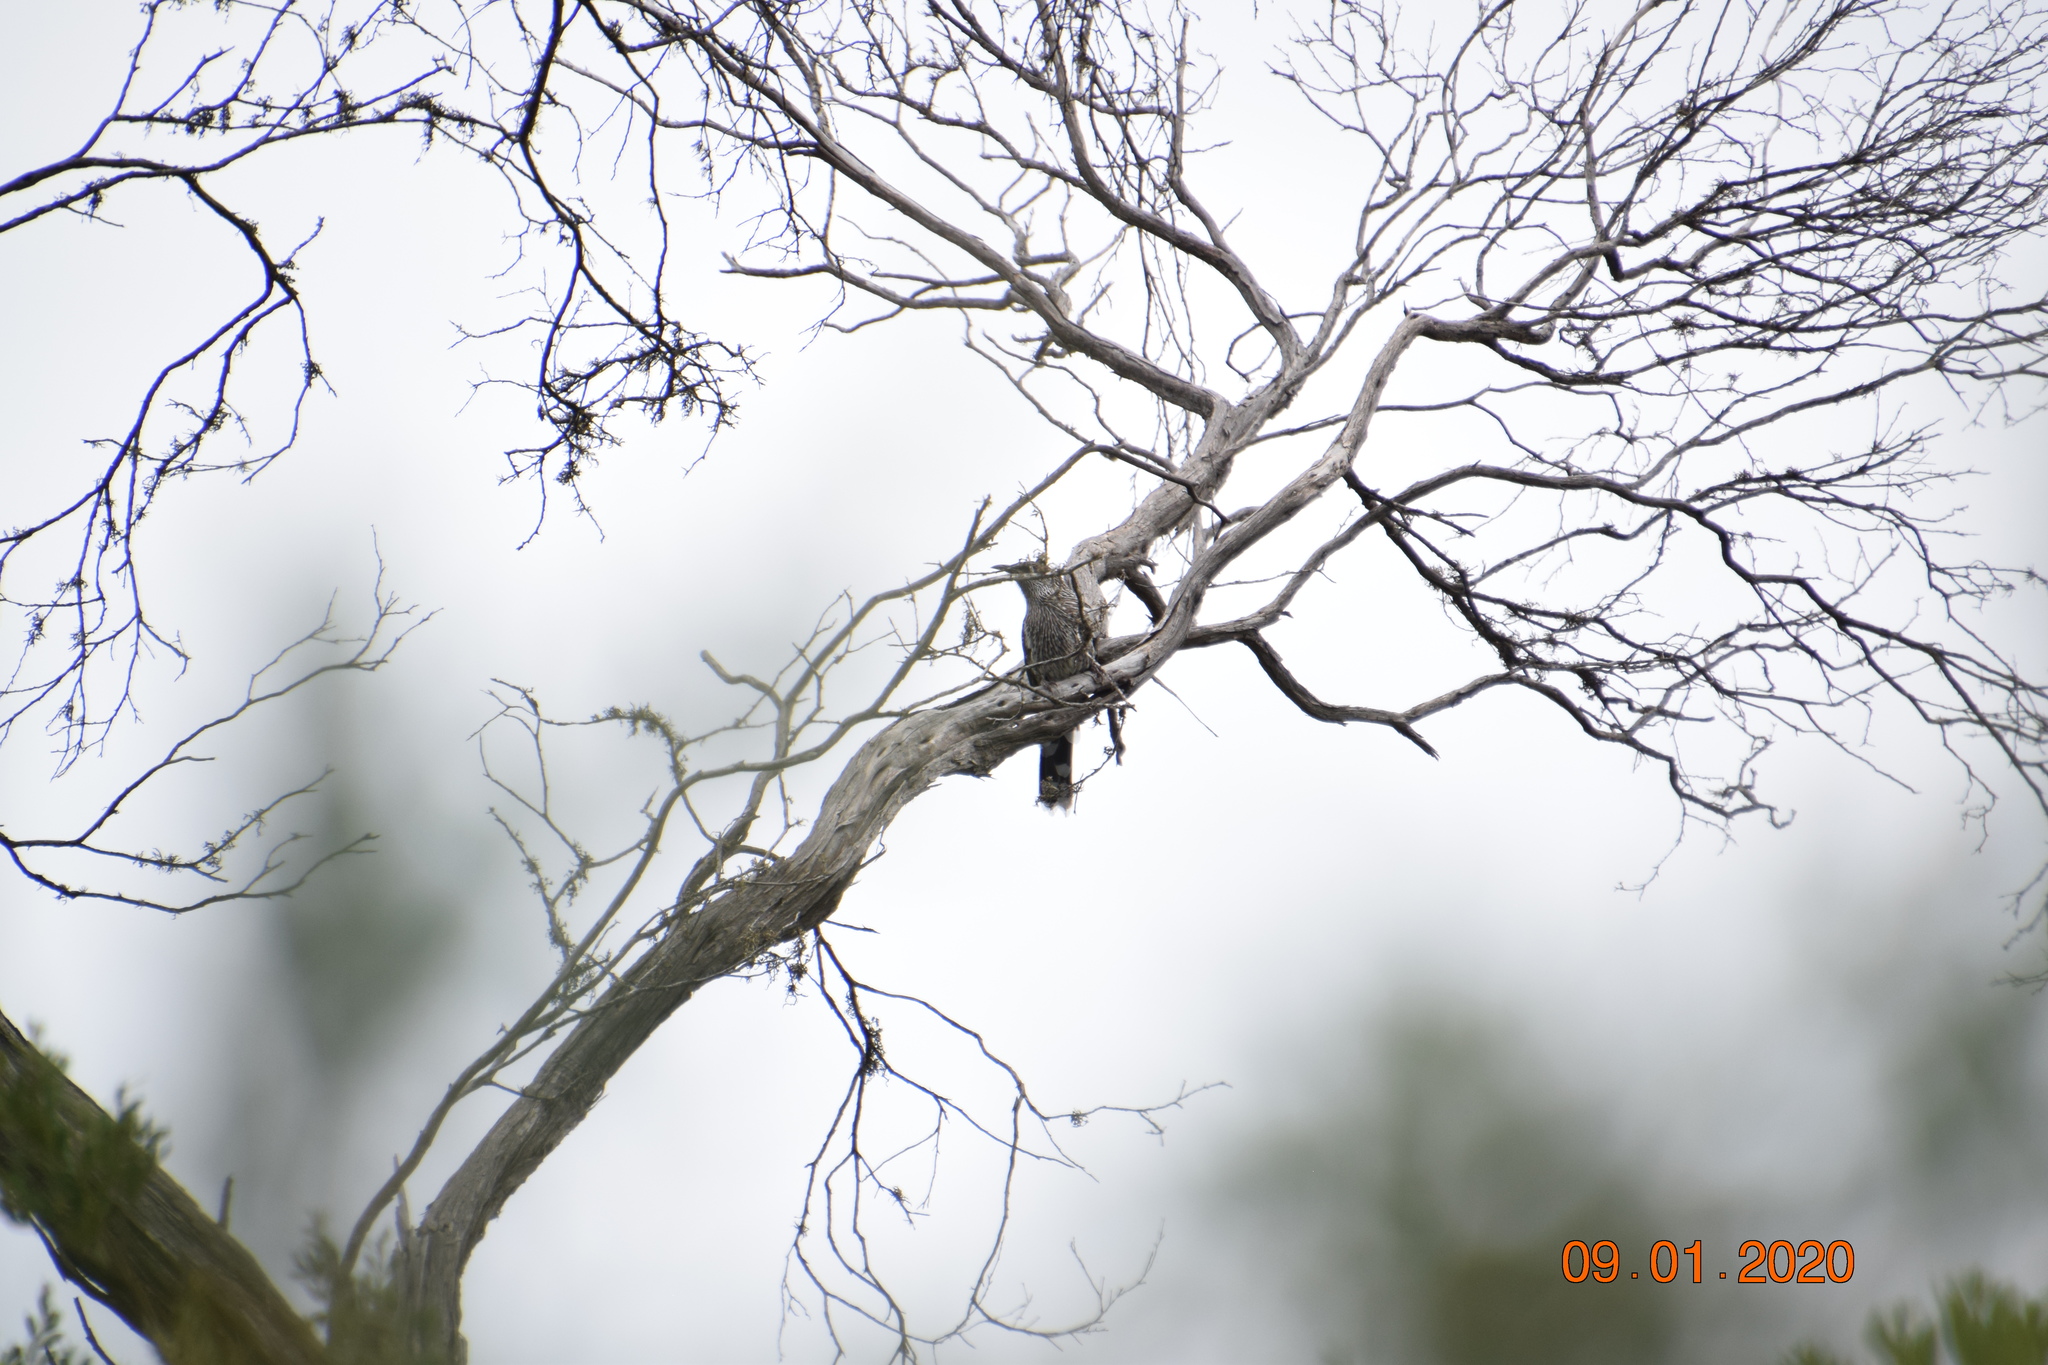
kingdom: Animalia
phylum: Chordata
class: Aves
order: Passeriformes
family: Meliphagidae
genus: Anthochaera
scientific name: Anthochaera chrysoptera
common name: Little wattlebird
